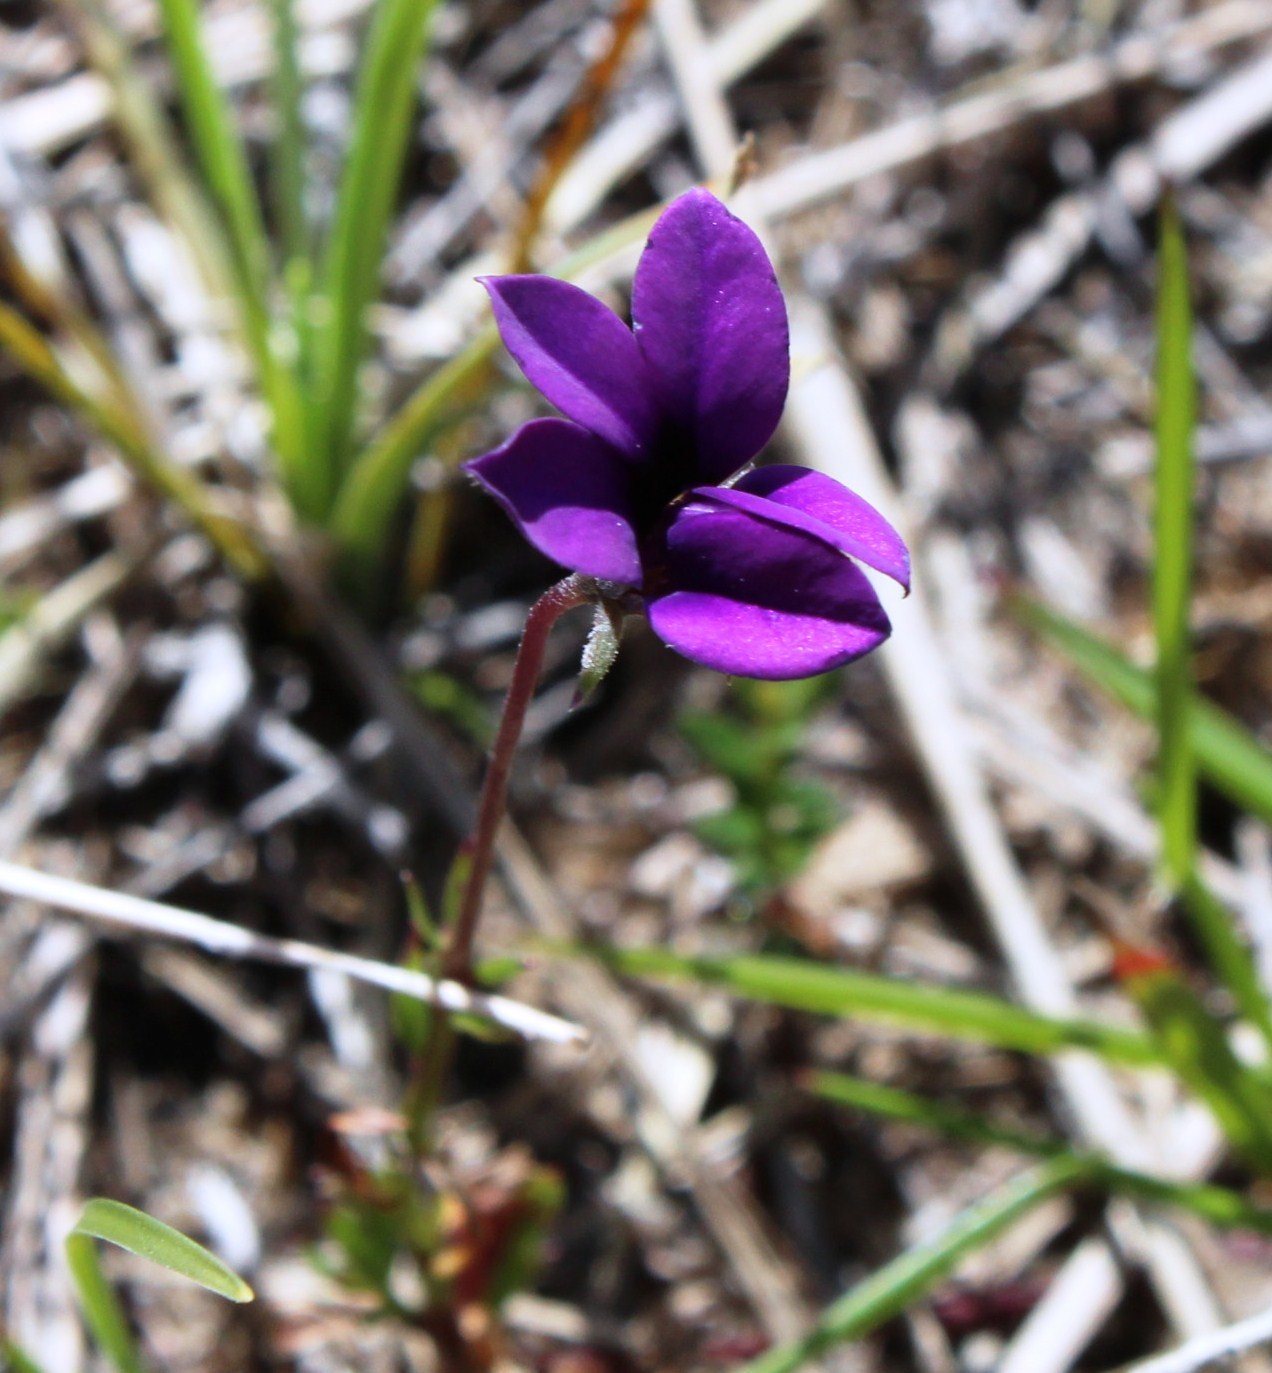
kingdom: Plantae
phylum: Tracheophyta
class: Magnoliopsida
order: Asterales
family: Campanulaceae
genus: Monopsis
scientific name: Monopsis unidentata
